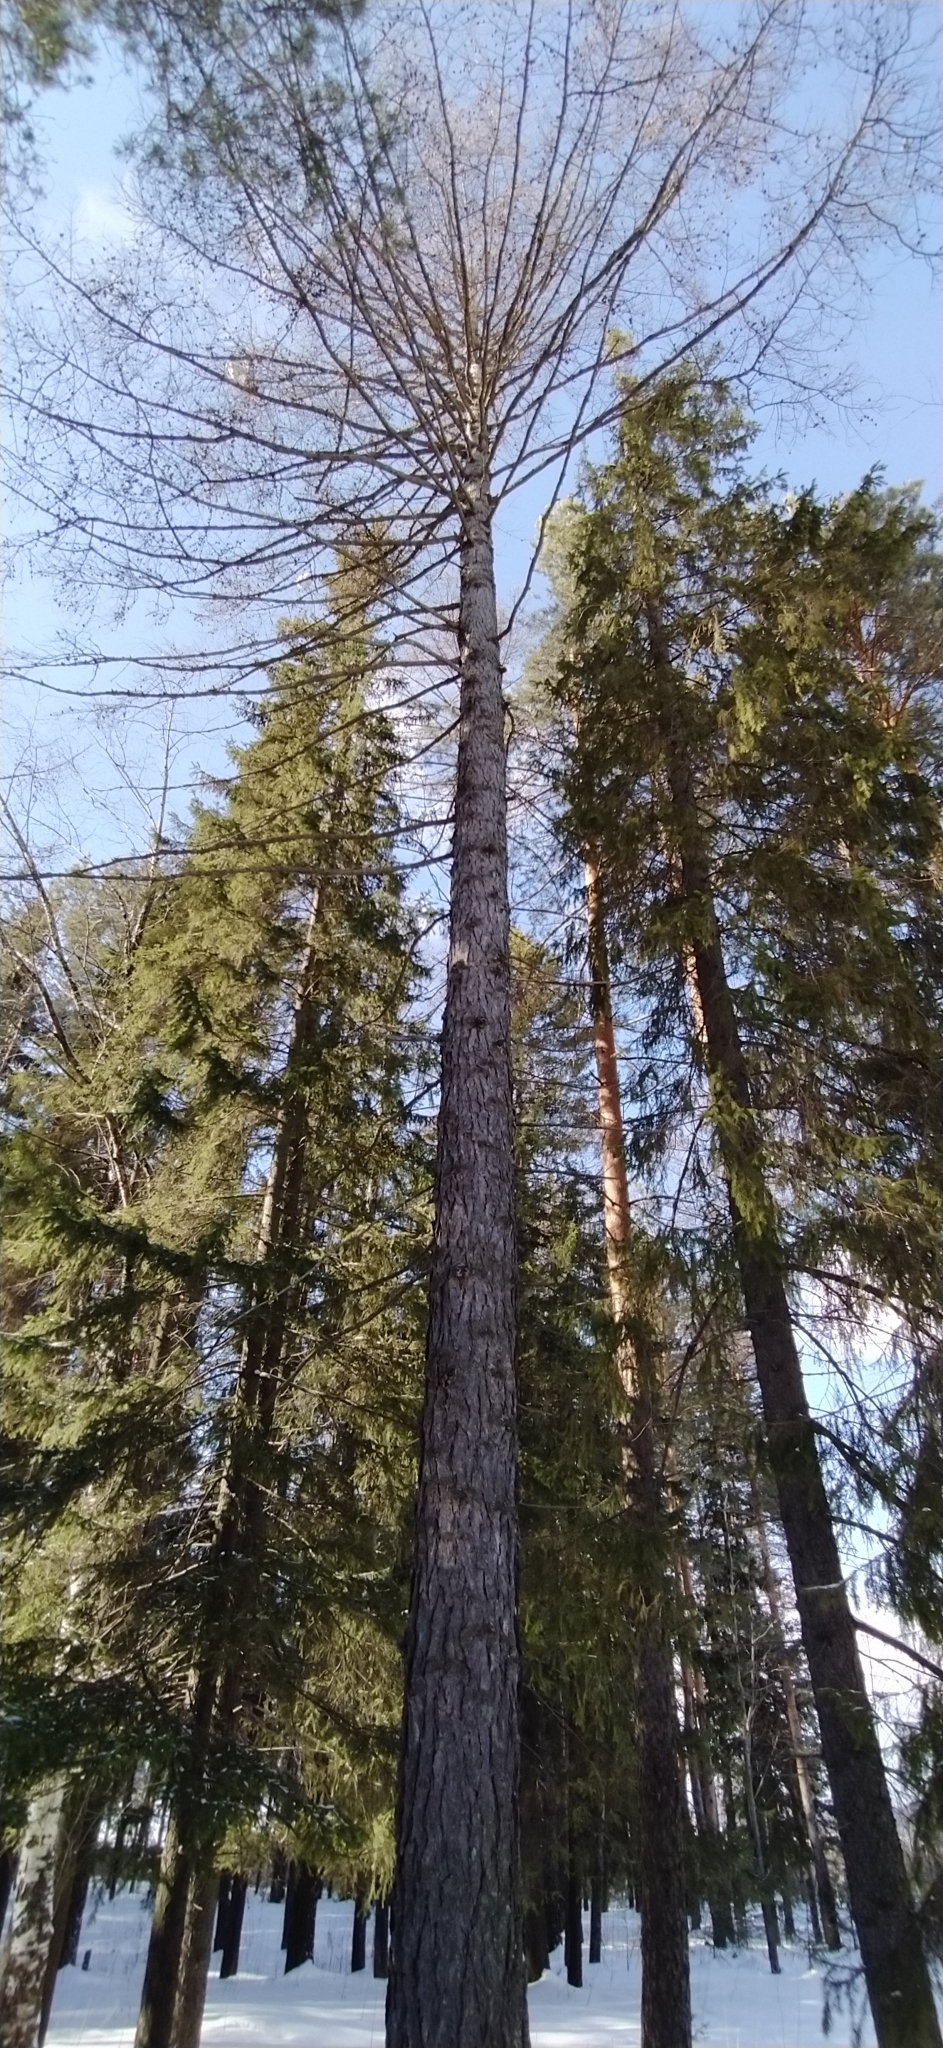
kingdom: Plantae
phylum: Tracheophyta
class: Pinopsida
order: Pinales
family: Pinaceae
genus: Larix
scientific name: Larix sibirica
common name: Siberian larch
